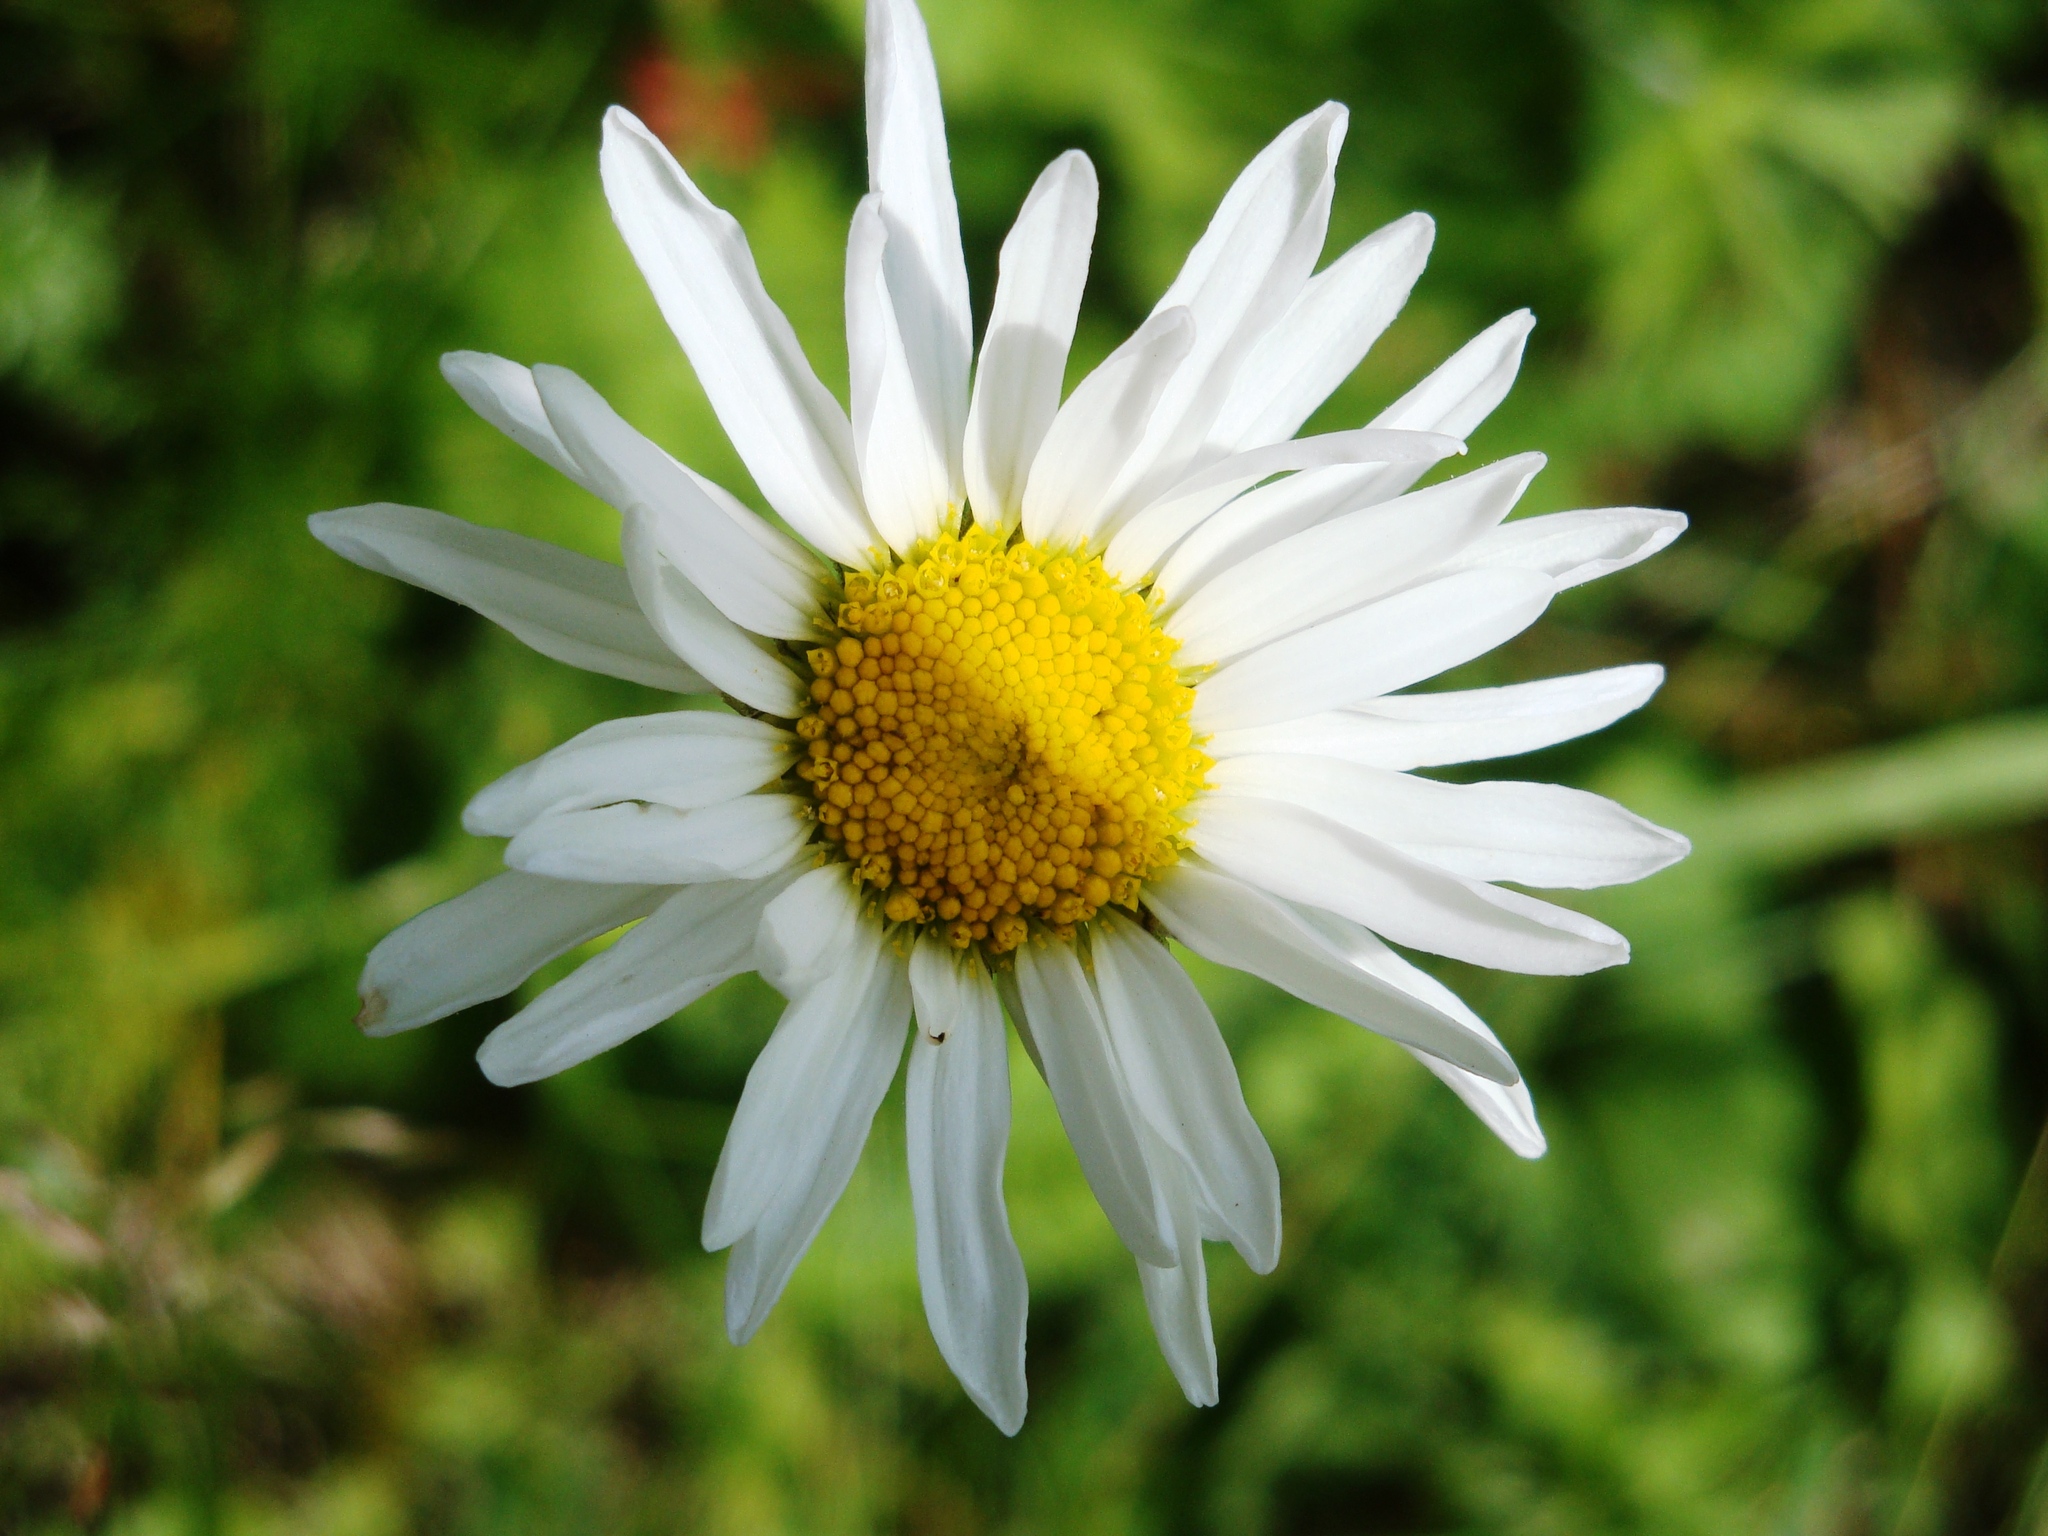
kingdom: Plantae
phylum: Tracheophyta
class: Magnoliopsida
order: Asterales
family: Asteraceae
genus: Leucanthemum
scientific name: Leucanthemum vulgare
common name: Oxeye daisy
